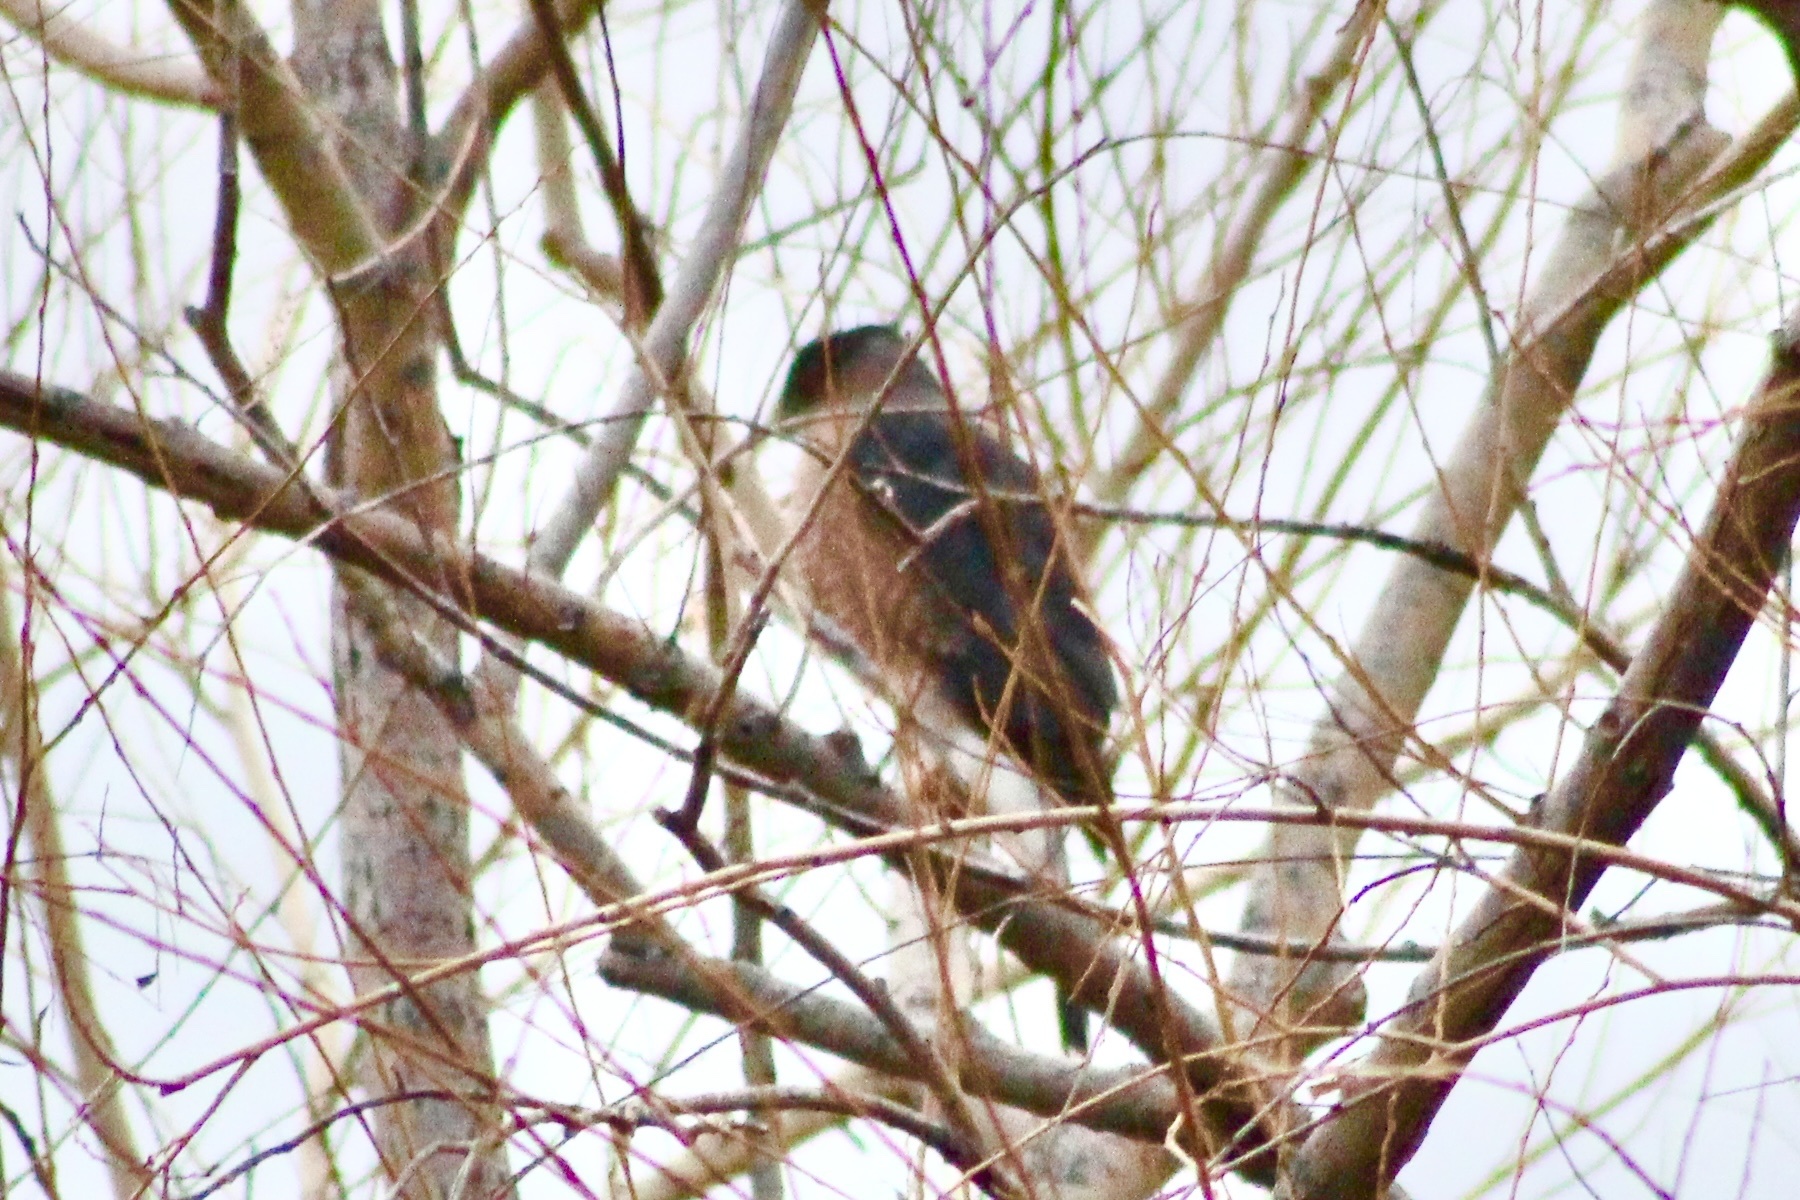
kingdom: Animalia
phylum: Chordata
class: Aves
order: Accipitriformes
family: Accipitridae
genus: Accipiter
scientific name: Accipiter cooperii
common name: Cooper's hawk
